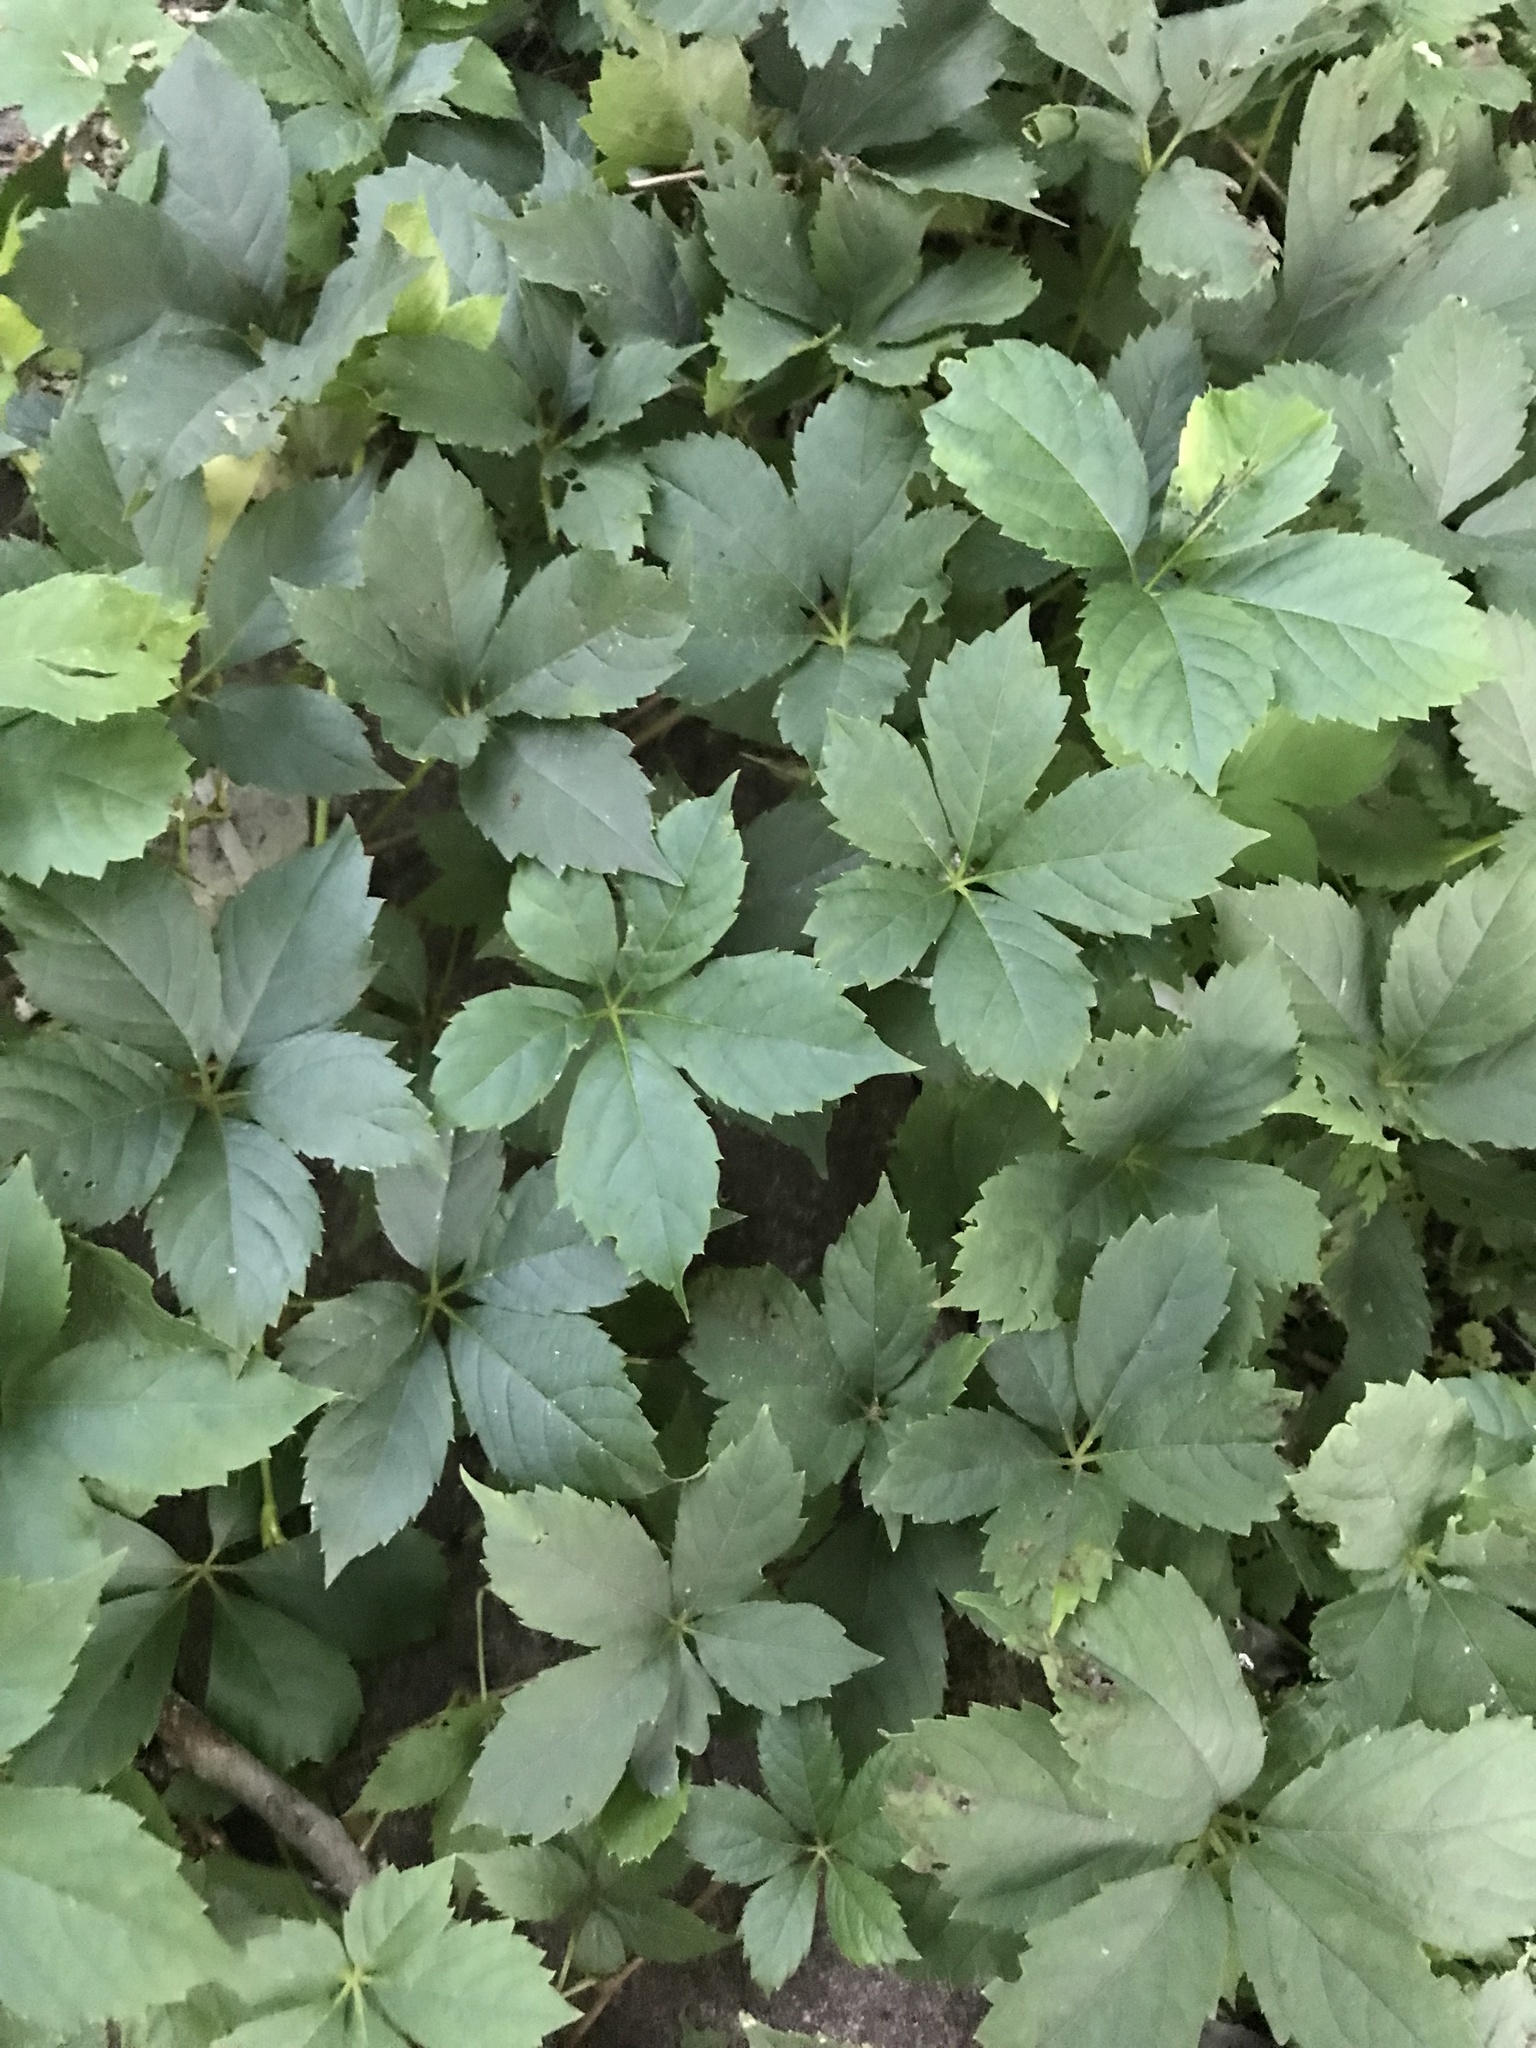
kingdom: Plantae
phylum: Tracheophyta
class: Magnoliopsida
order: Vitales
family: Vitaceae
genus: Parthenocissus
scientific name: Parthenocissus quinquefolia
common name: Virginia-creeper
